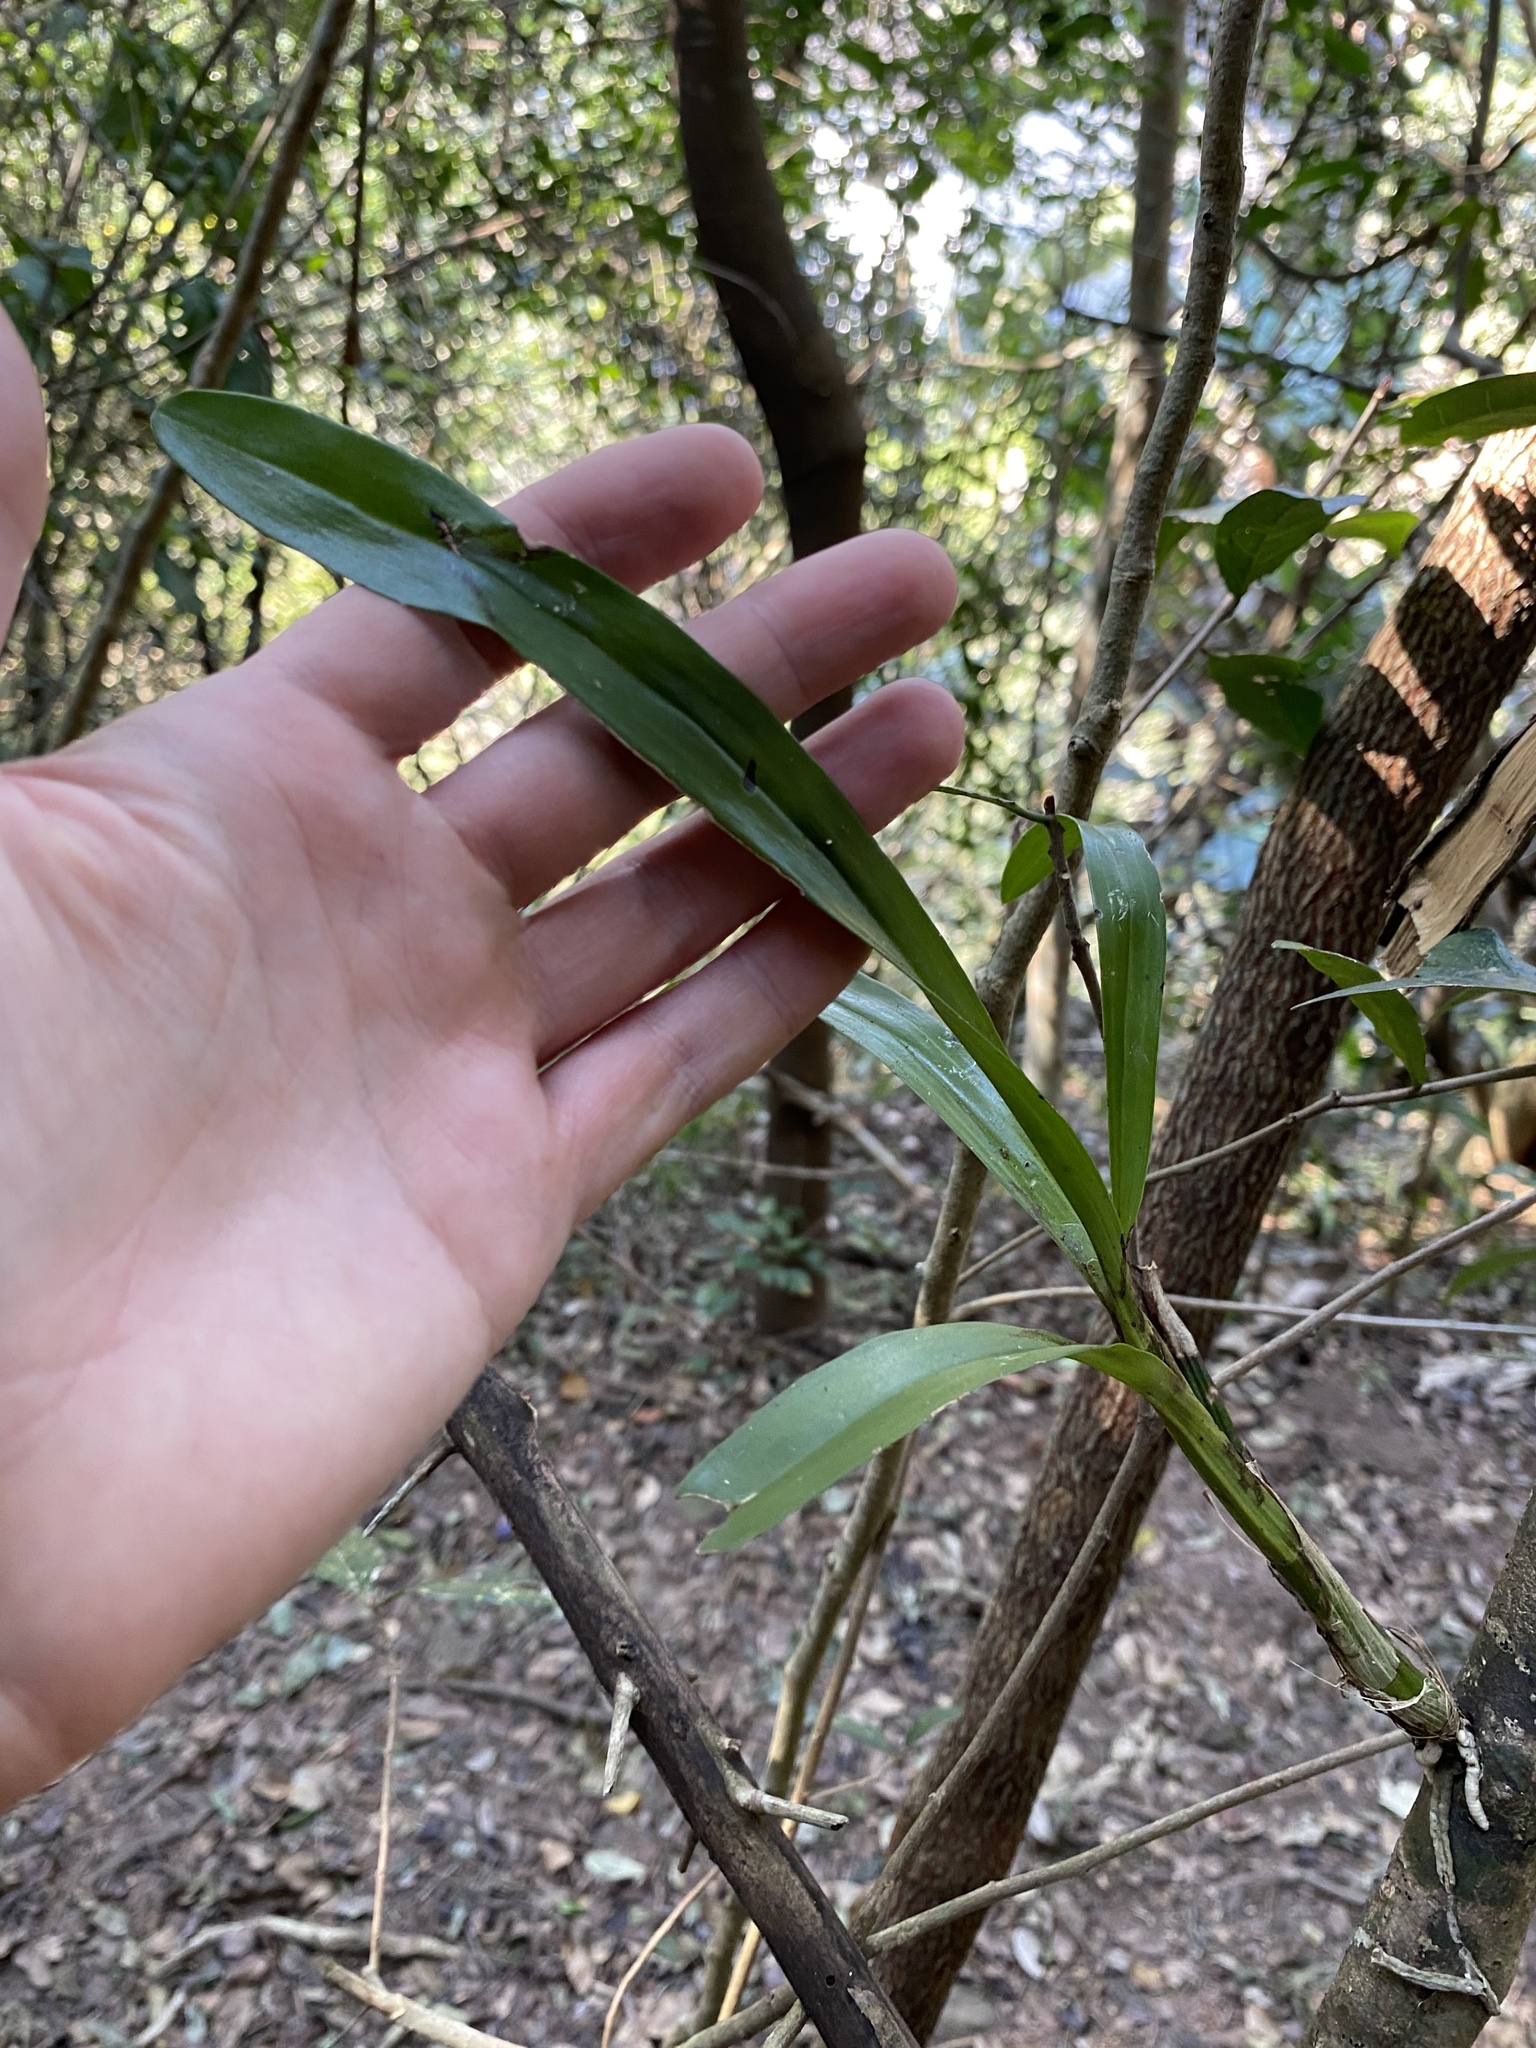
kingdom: Plantae
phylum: Tracheophyta
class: Liliopsida
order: Asparagales
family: Orchidaceae
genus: Ansellia
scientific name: Ansellia africana
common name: African ansellia
